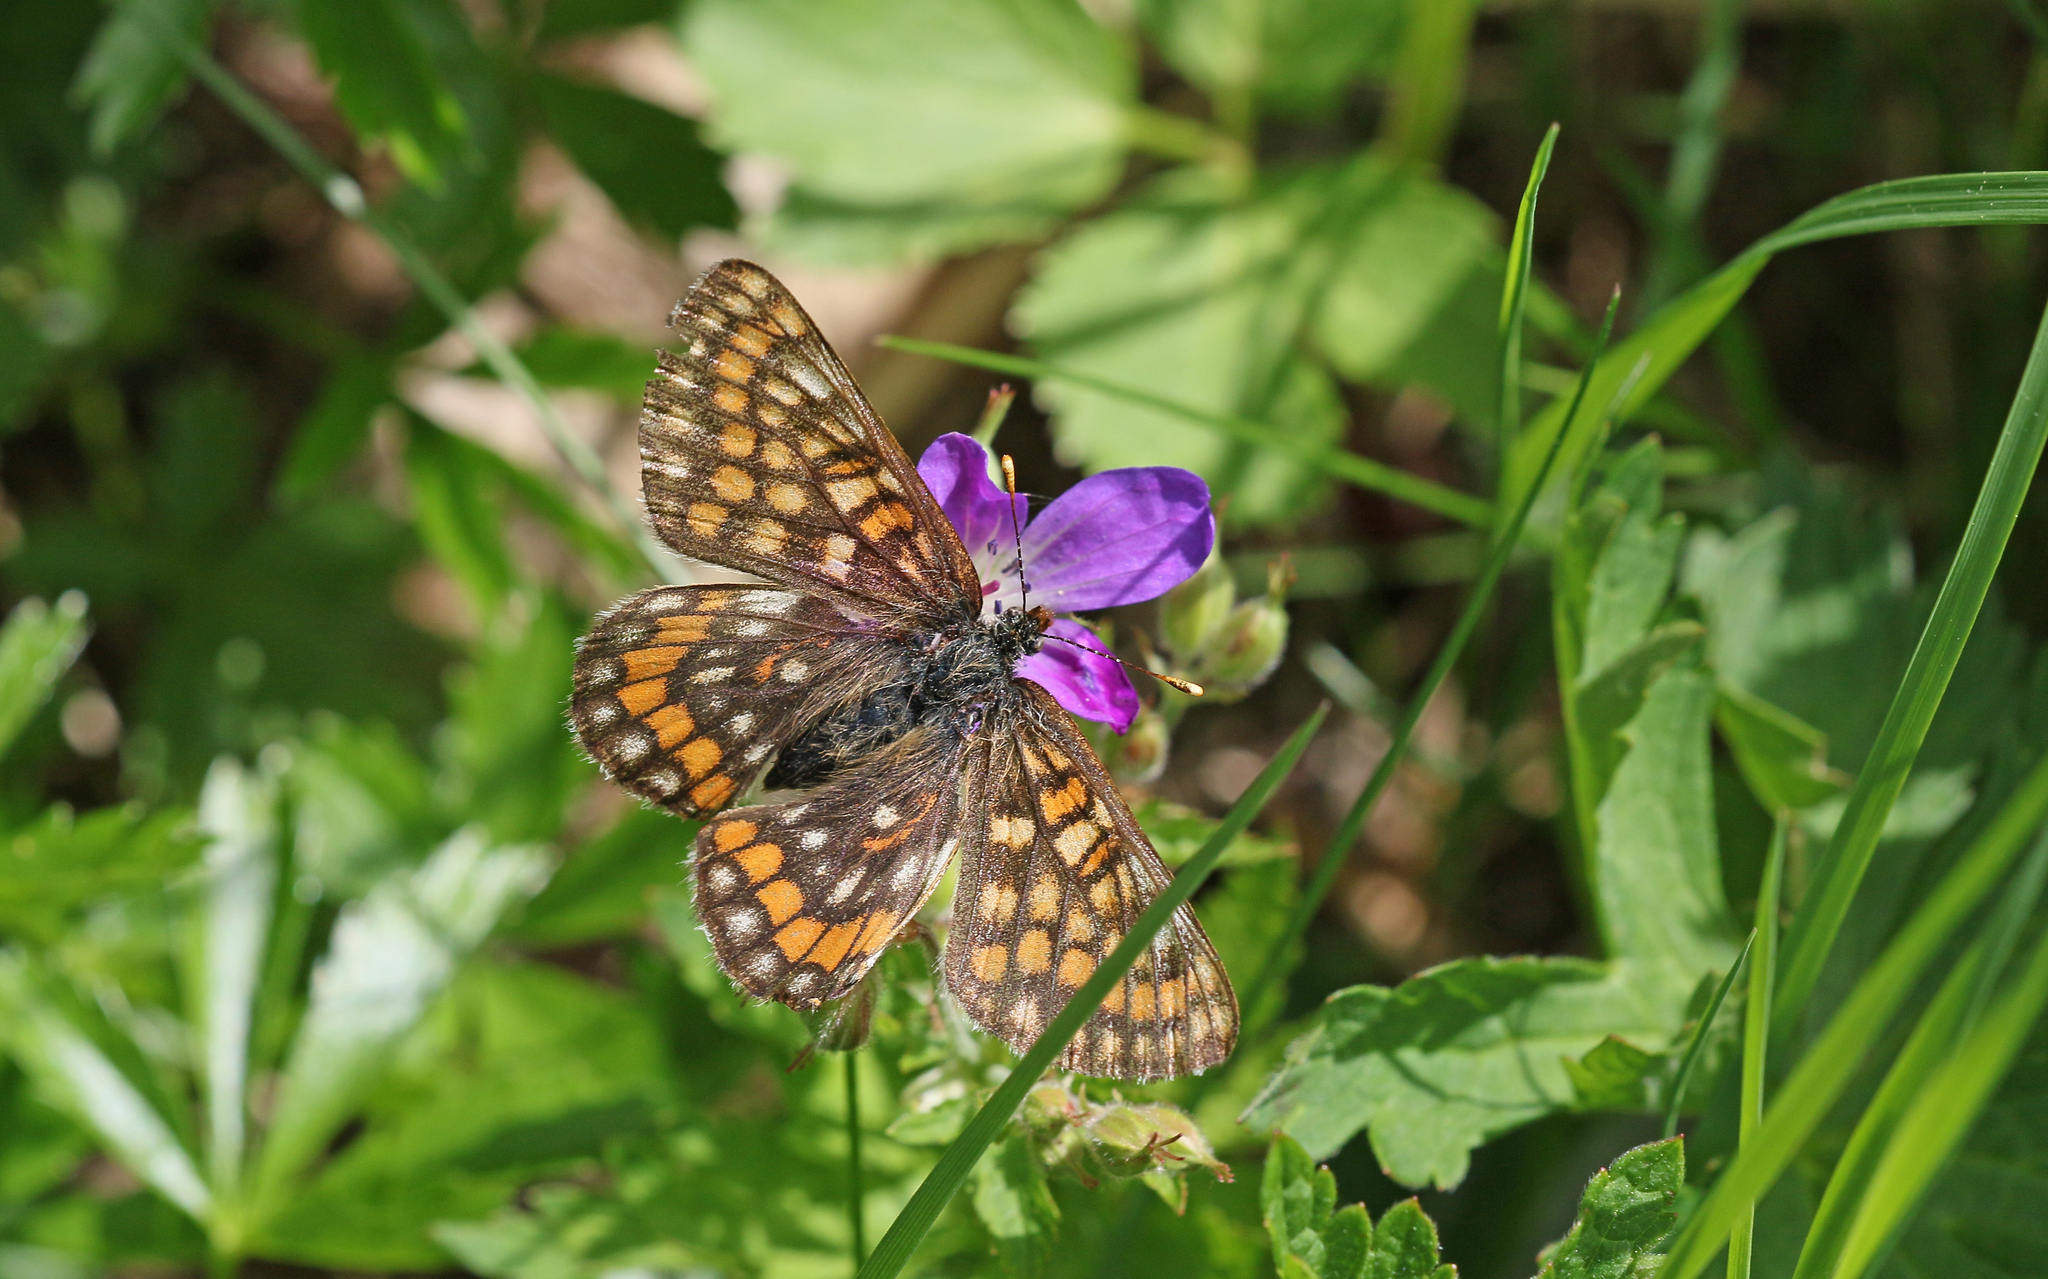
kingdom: Animalia
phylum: Arthropoda
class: Insecta
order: Lepidoptera
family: Nymphalidae
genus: Hypodryas
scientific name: Hypodryas intermedia
